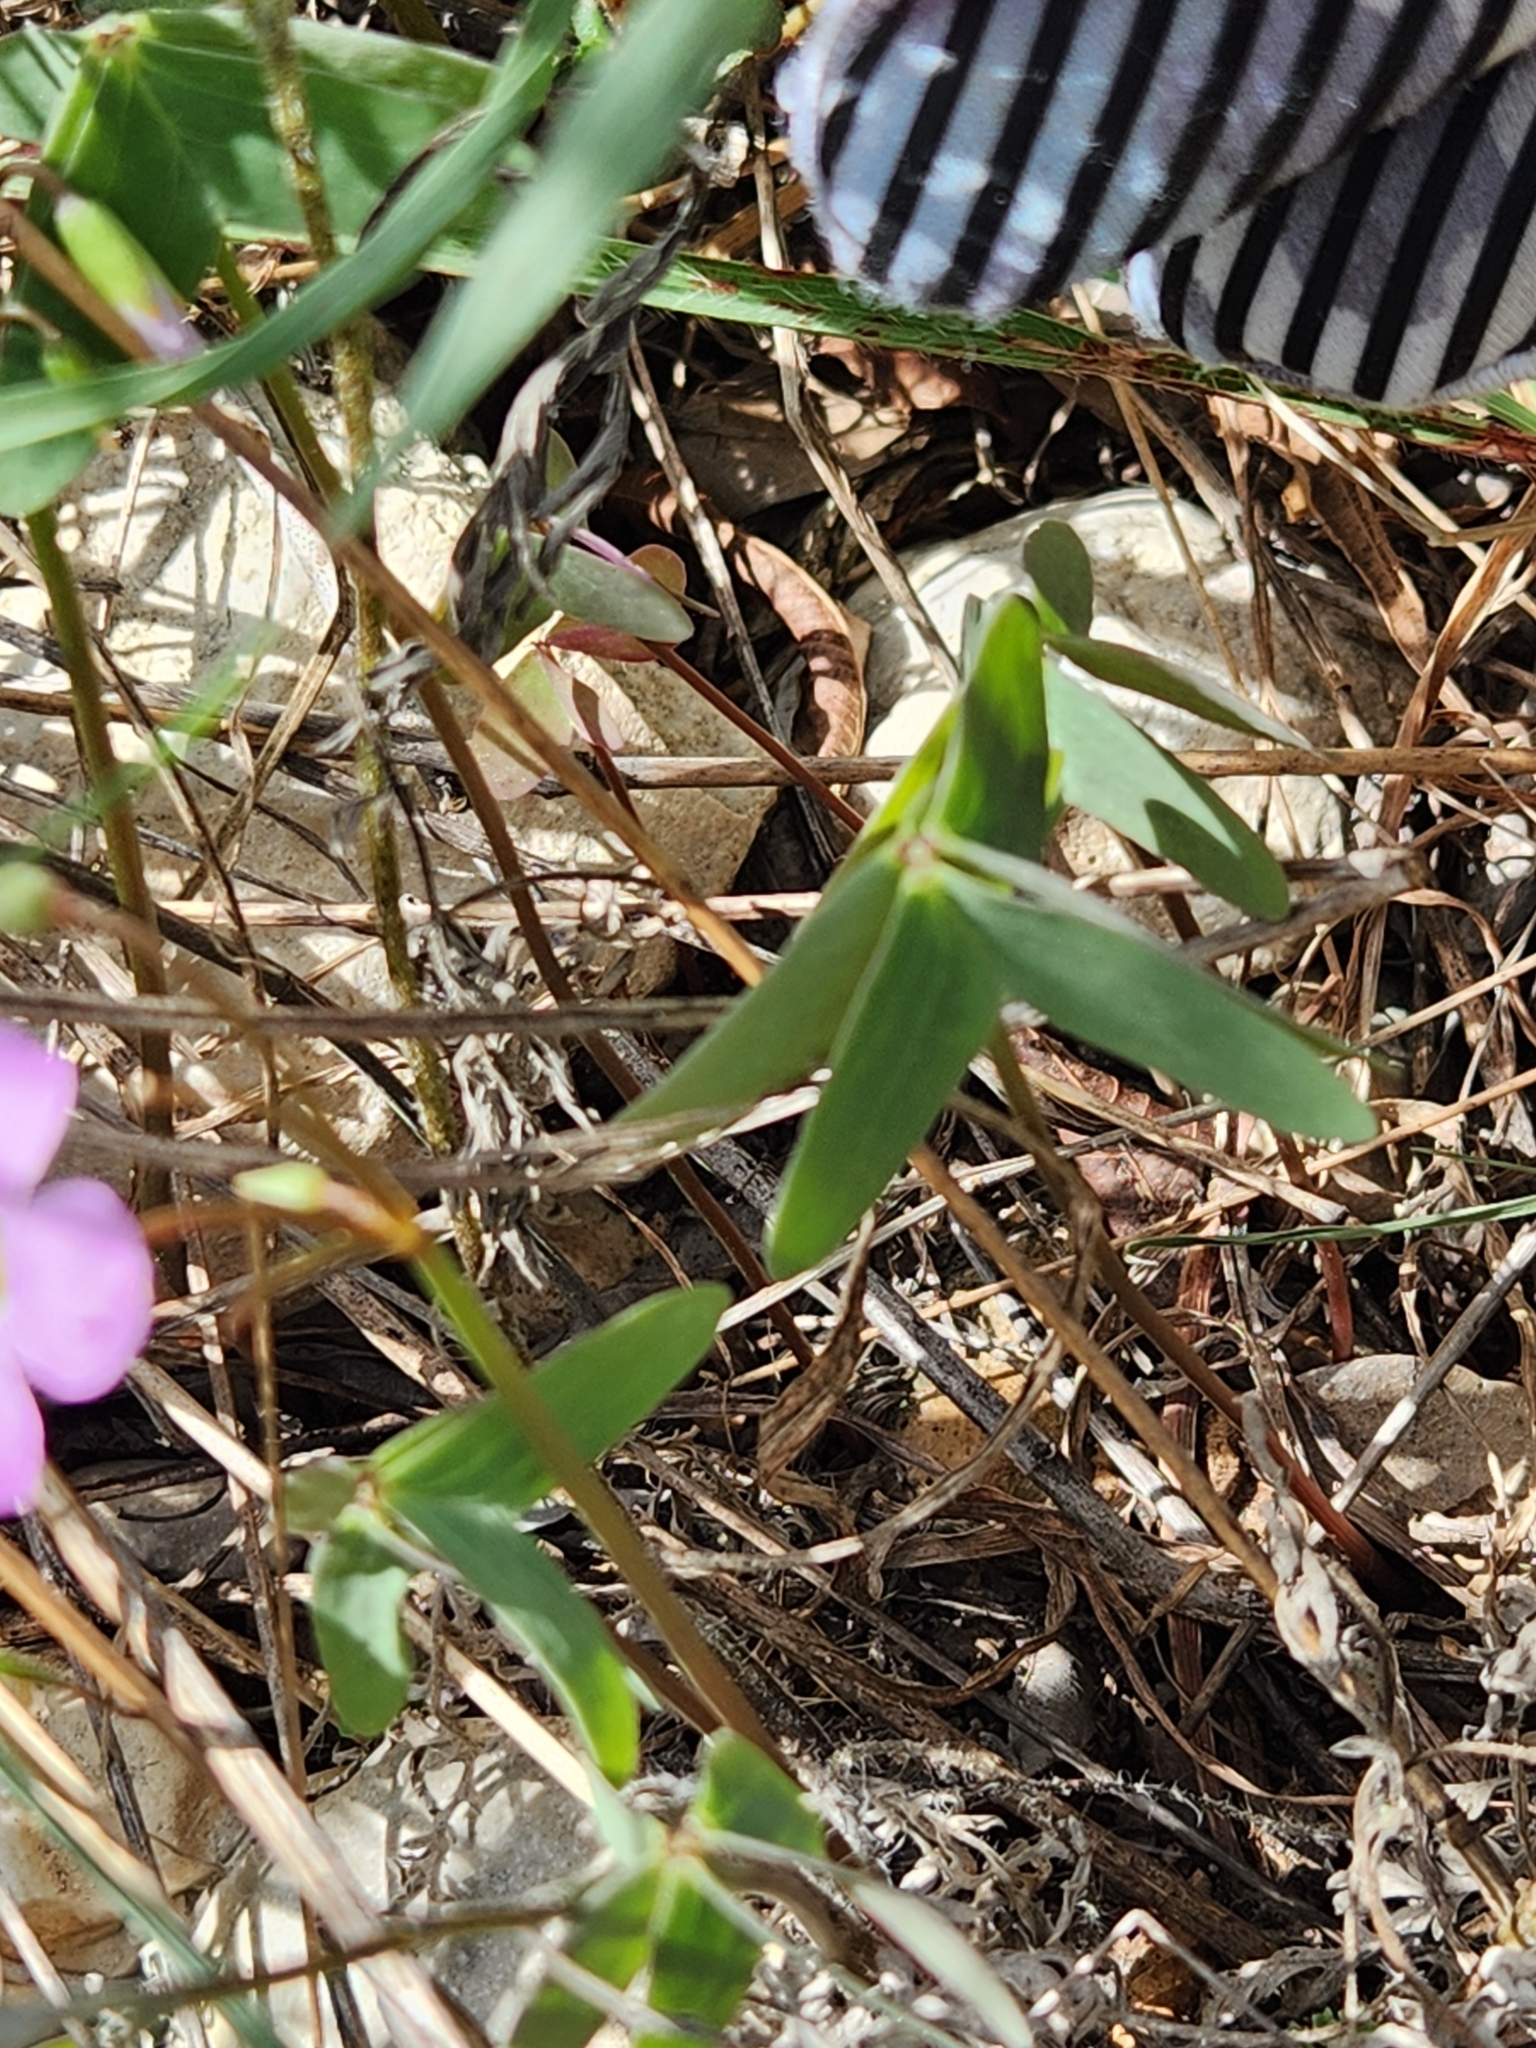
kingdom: Plantae
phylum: Tracheophyta
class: Magnoliopsida
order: Oxalidales
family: Oxalidaceae
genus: Oxalis
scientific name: Oxalis drummondii
